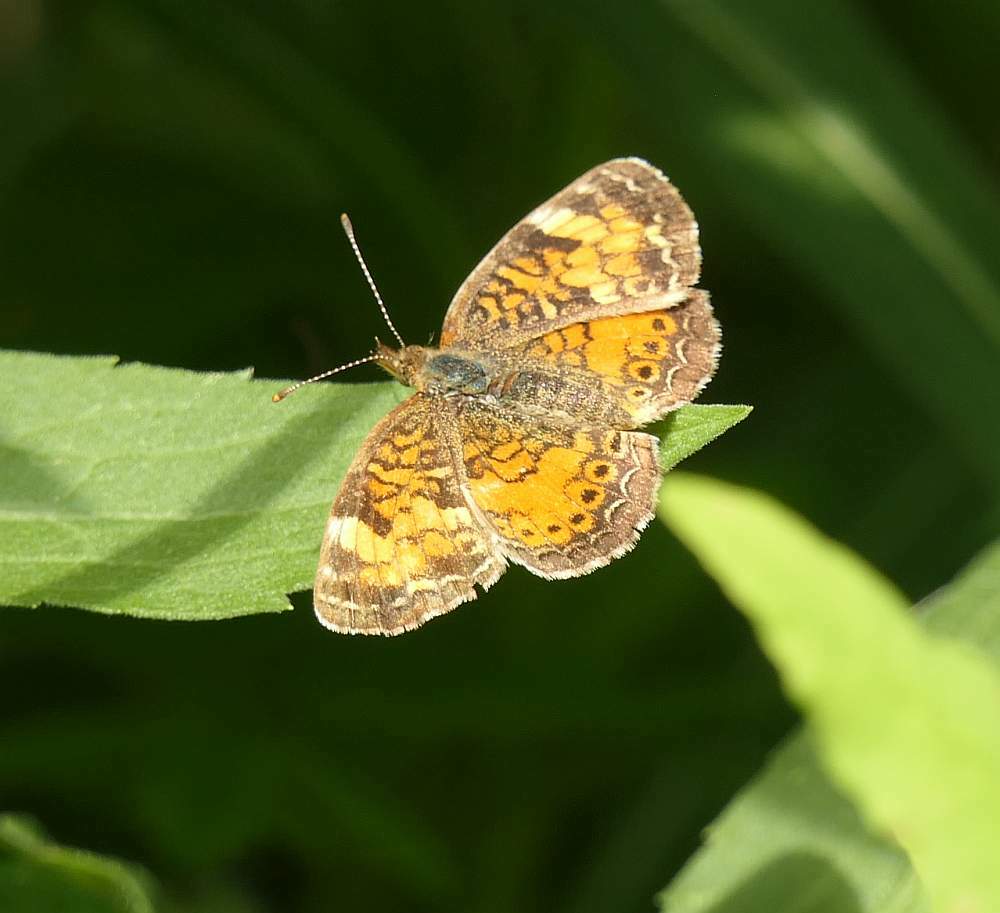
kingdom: Animalia
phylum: Arthropoda
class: Insecta
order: Lepidoptera
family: Nymphalidae
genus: Phyciodes
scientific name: Phyciodes tharos
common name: Pearl crescent
